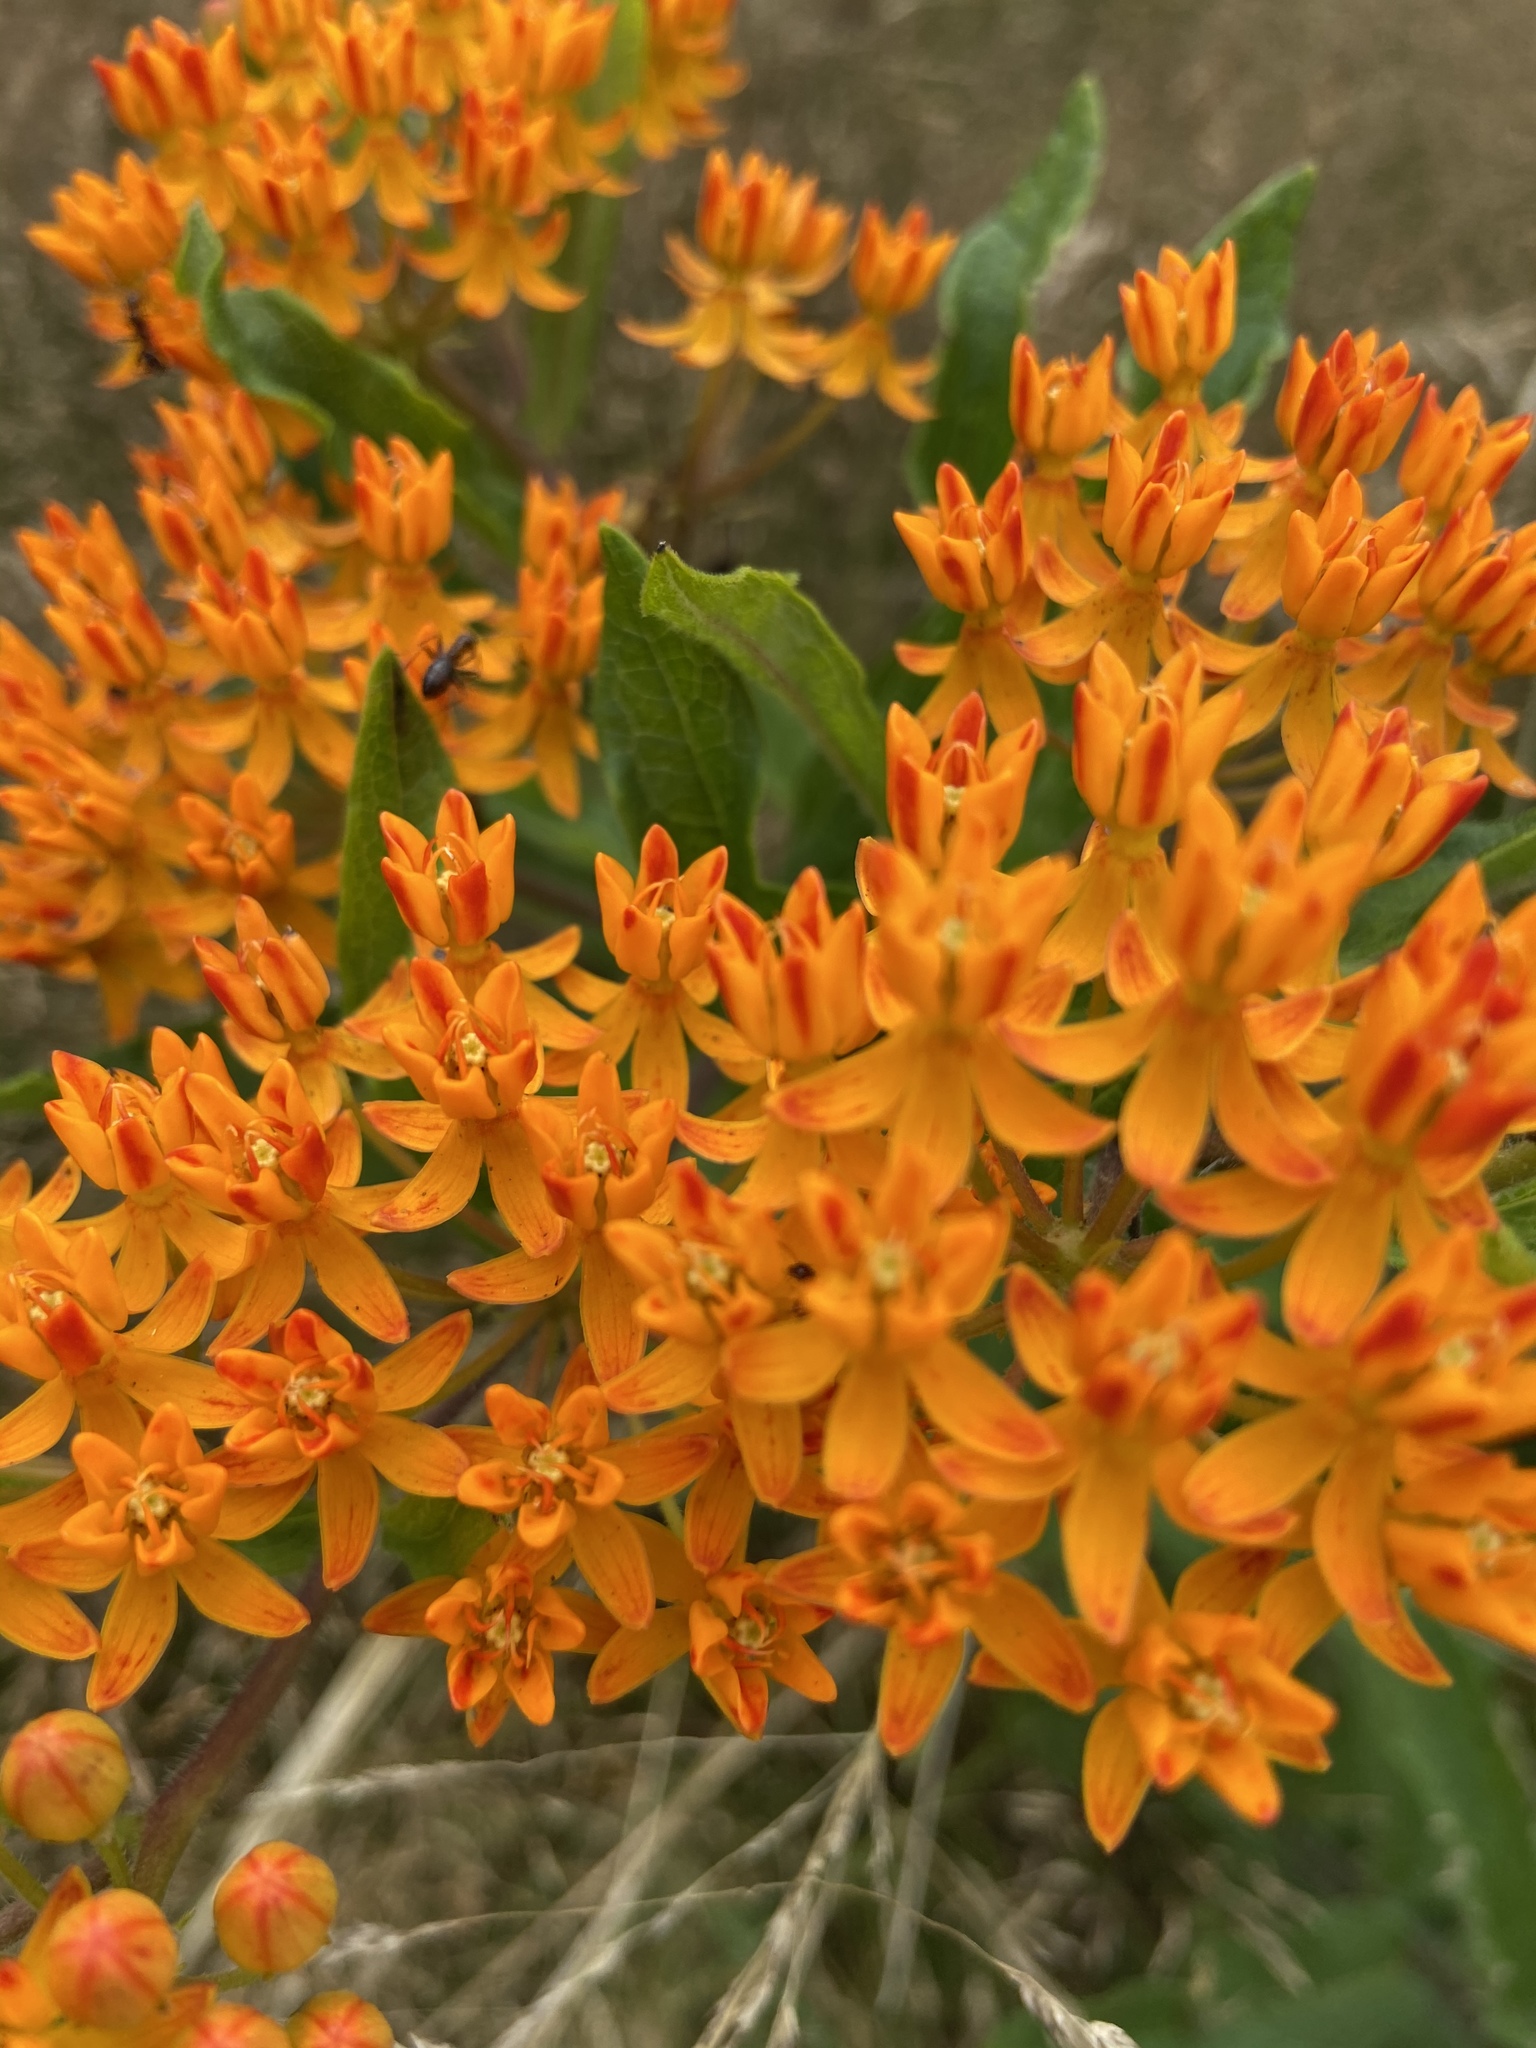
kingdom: Plantae
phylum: Tracheophyta
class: Magnoliopsida
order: Gentianales
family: Apocynaceae
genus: Asclepias
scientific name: Asclepias tuberosa
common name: Butterfly milkweed
